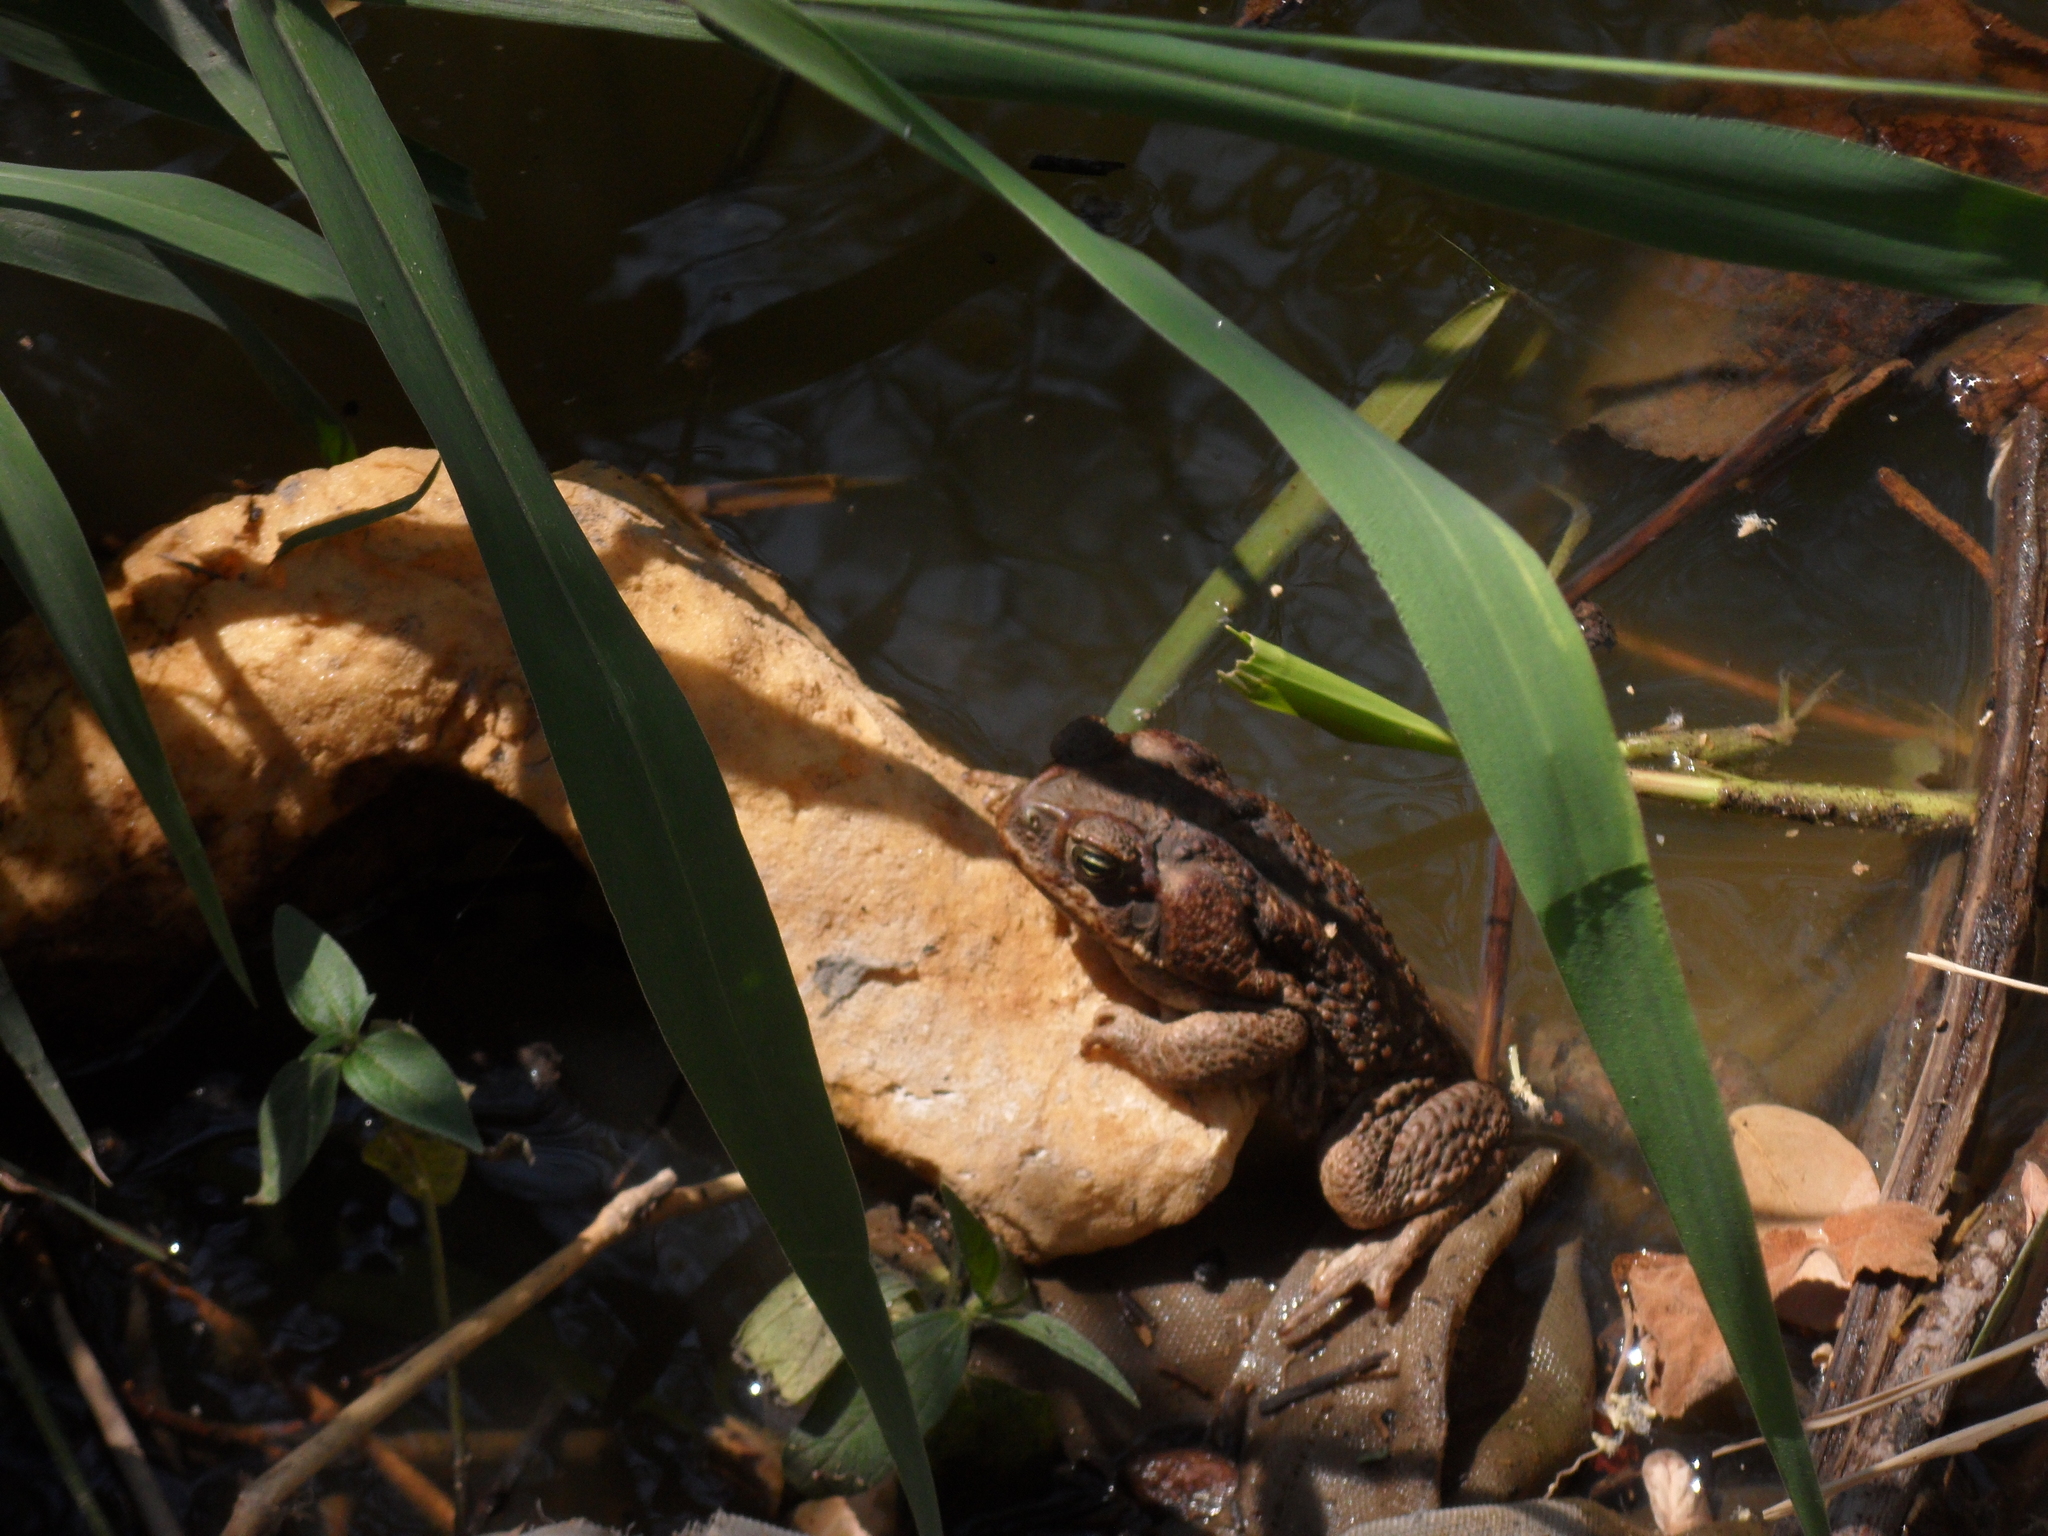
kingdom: Animalia
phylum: Chordata
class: Amphibia
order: Anura
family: Bufonidae
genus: Rhinella
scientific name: Rhinella horribilis
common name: Mesoamerican cane toad
